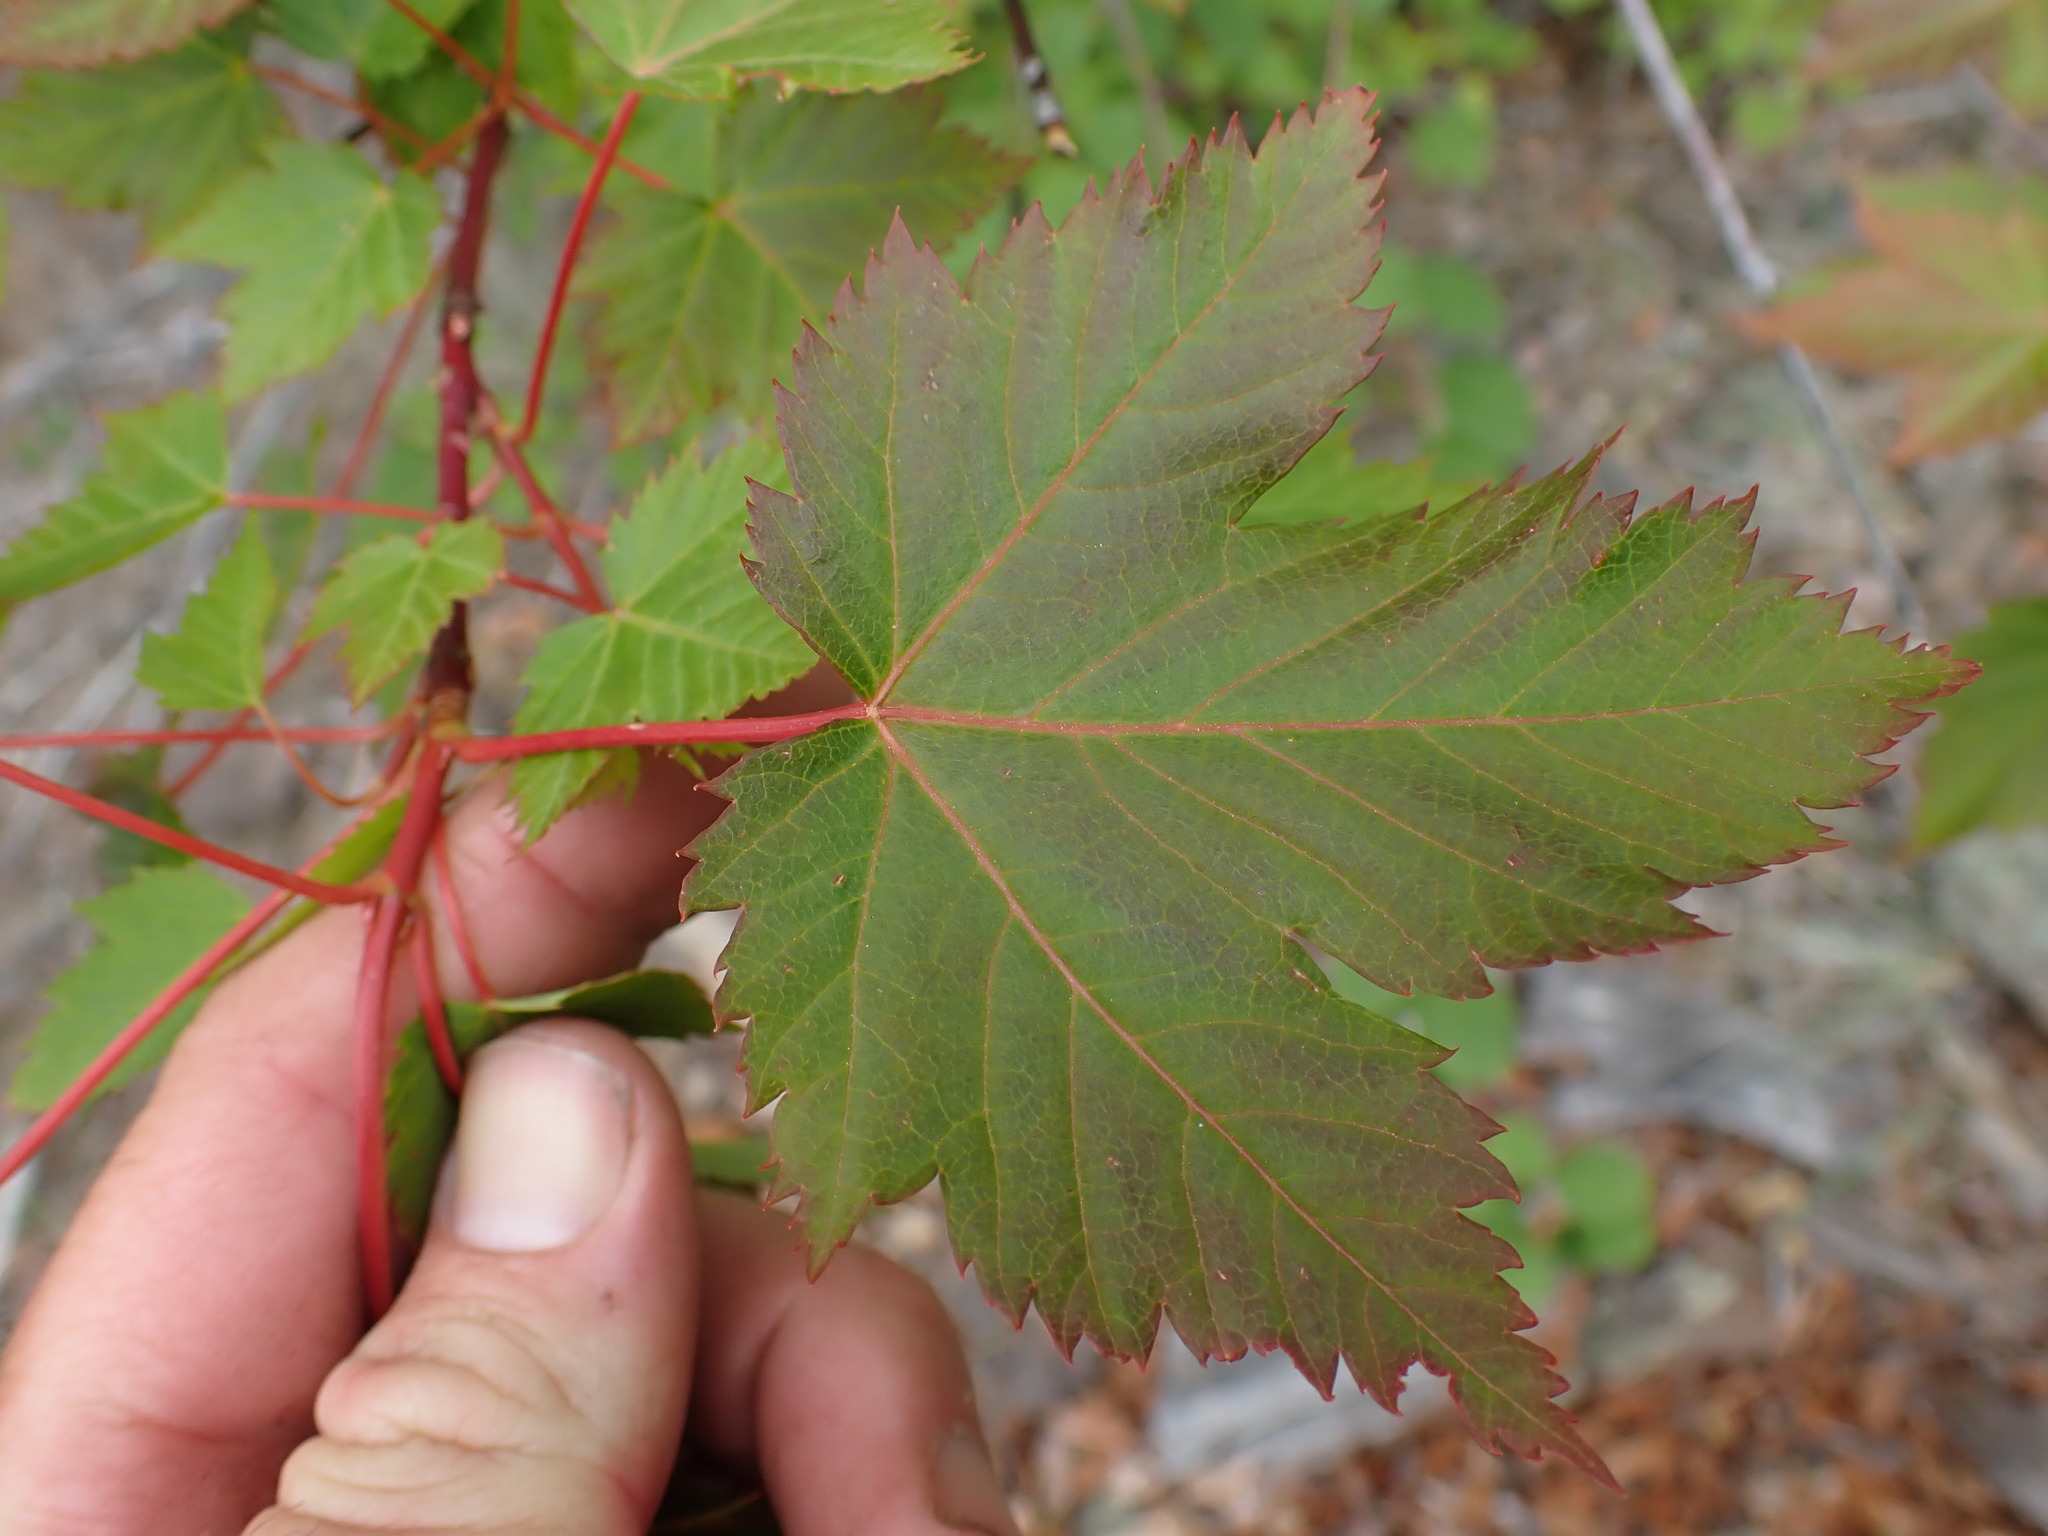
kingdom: Plantae
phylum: Tracheophyta
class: Magnoliopsida
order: Sapindales
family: Sapindaceae
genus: Acer
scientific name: Acer glabrum
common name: Rocky mountain maple
